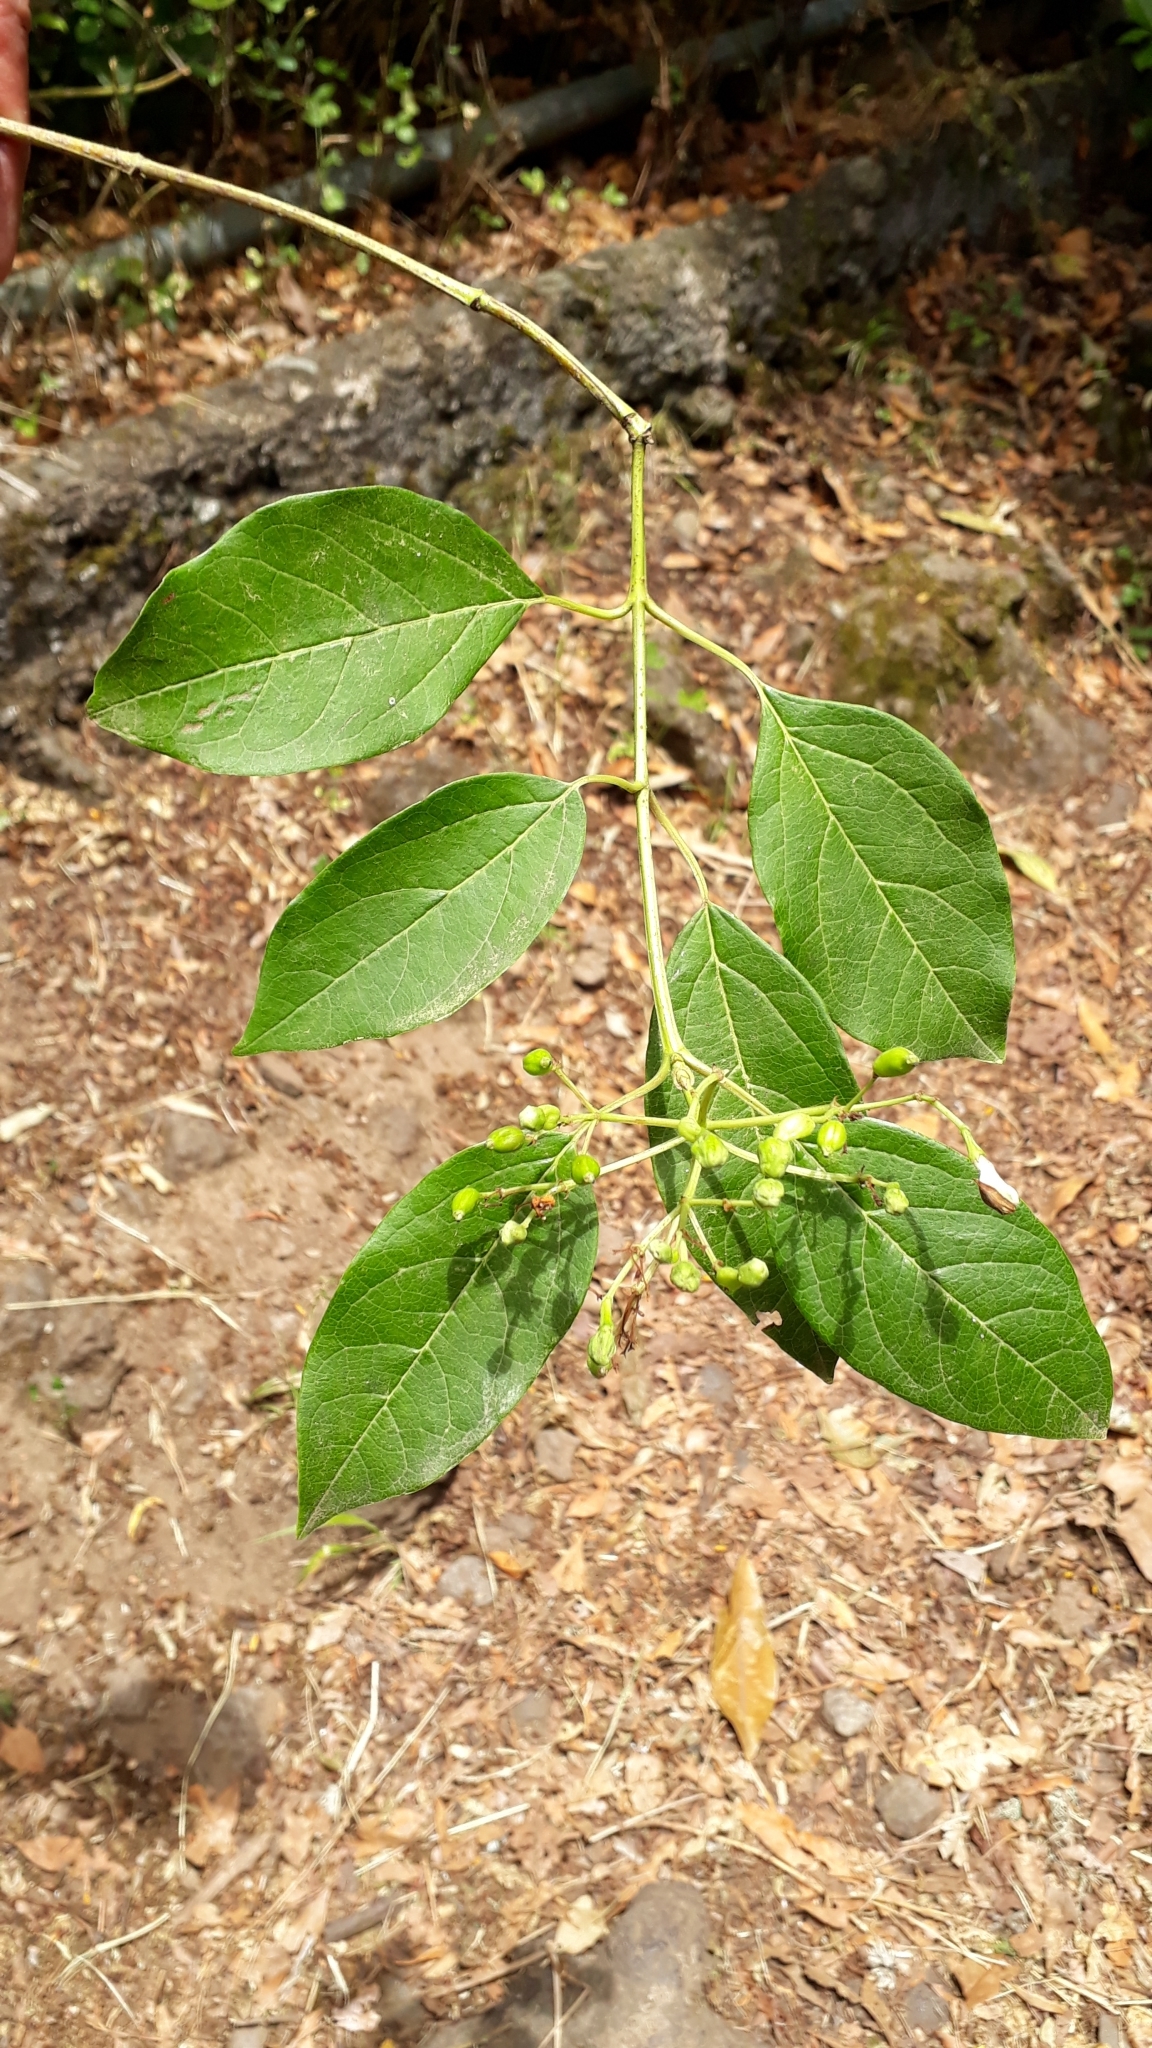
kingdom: Plantae
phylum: Tracheophyta
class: Magnoliopsida
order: Dipsacales
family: Viburnaceae
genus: Viburnum
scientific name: Viburnum rugosum
